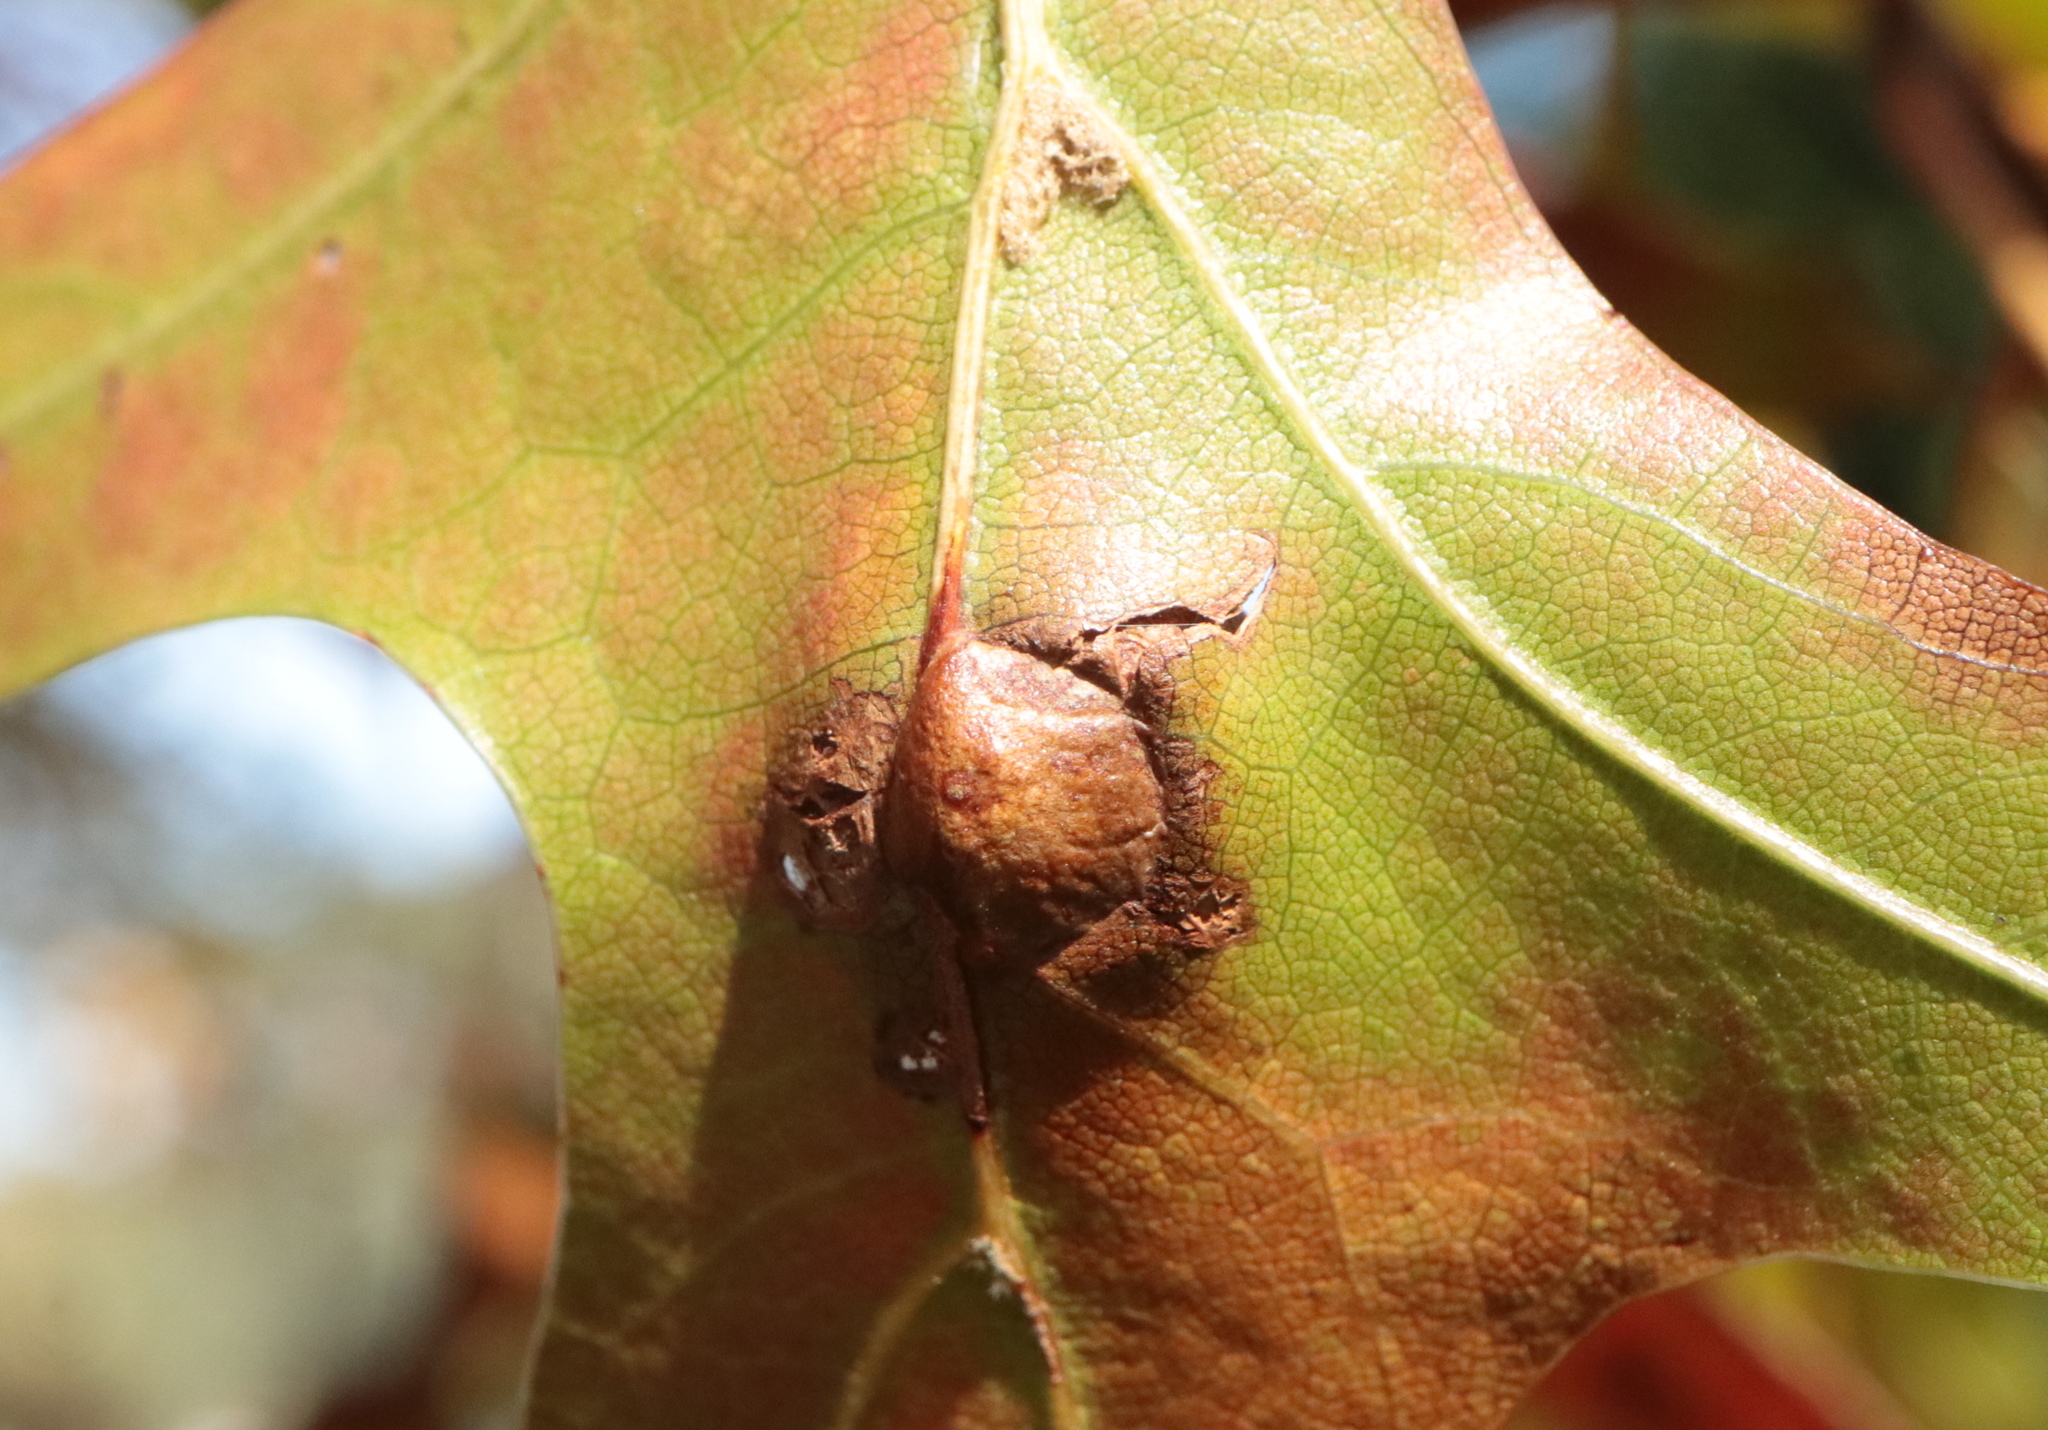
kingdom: Animalia
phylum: Arthropoda
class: Insecta
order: Diptera
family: Cecidomyiidae
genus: Polystepha
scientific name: Polystepha pilulae
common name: Oak leaf gall midge
